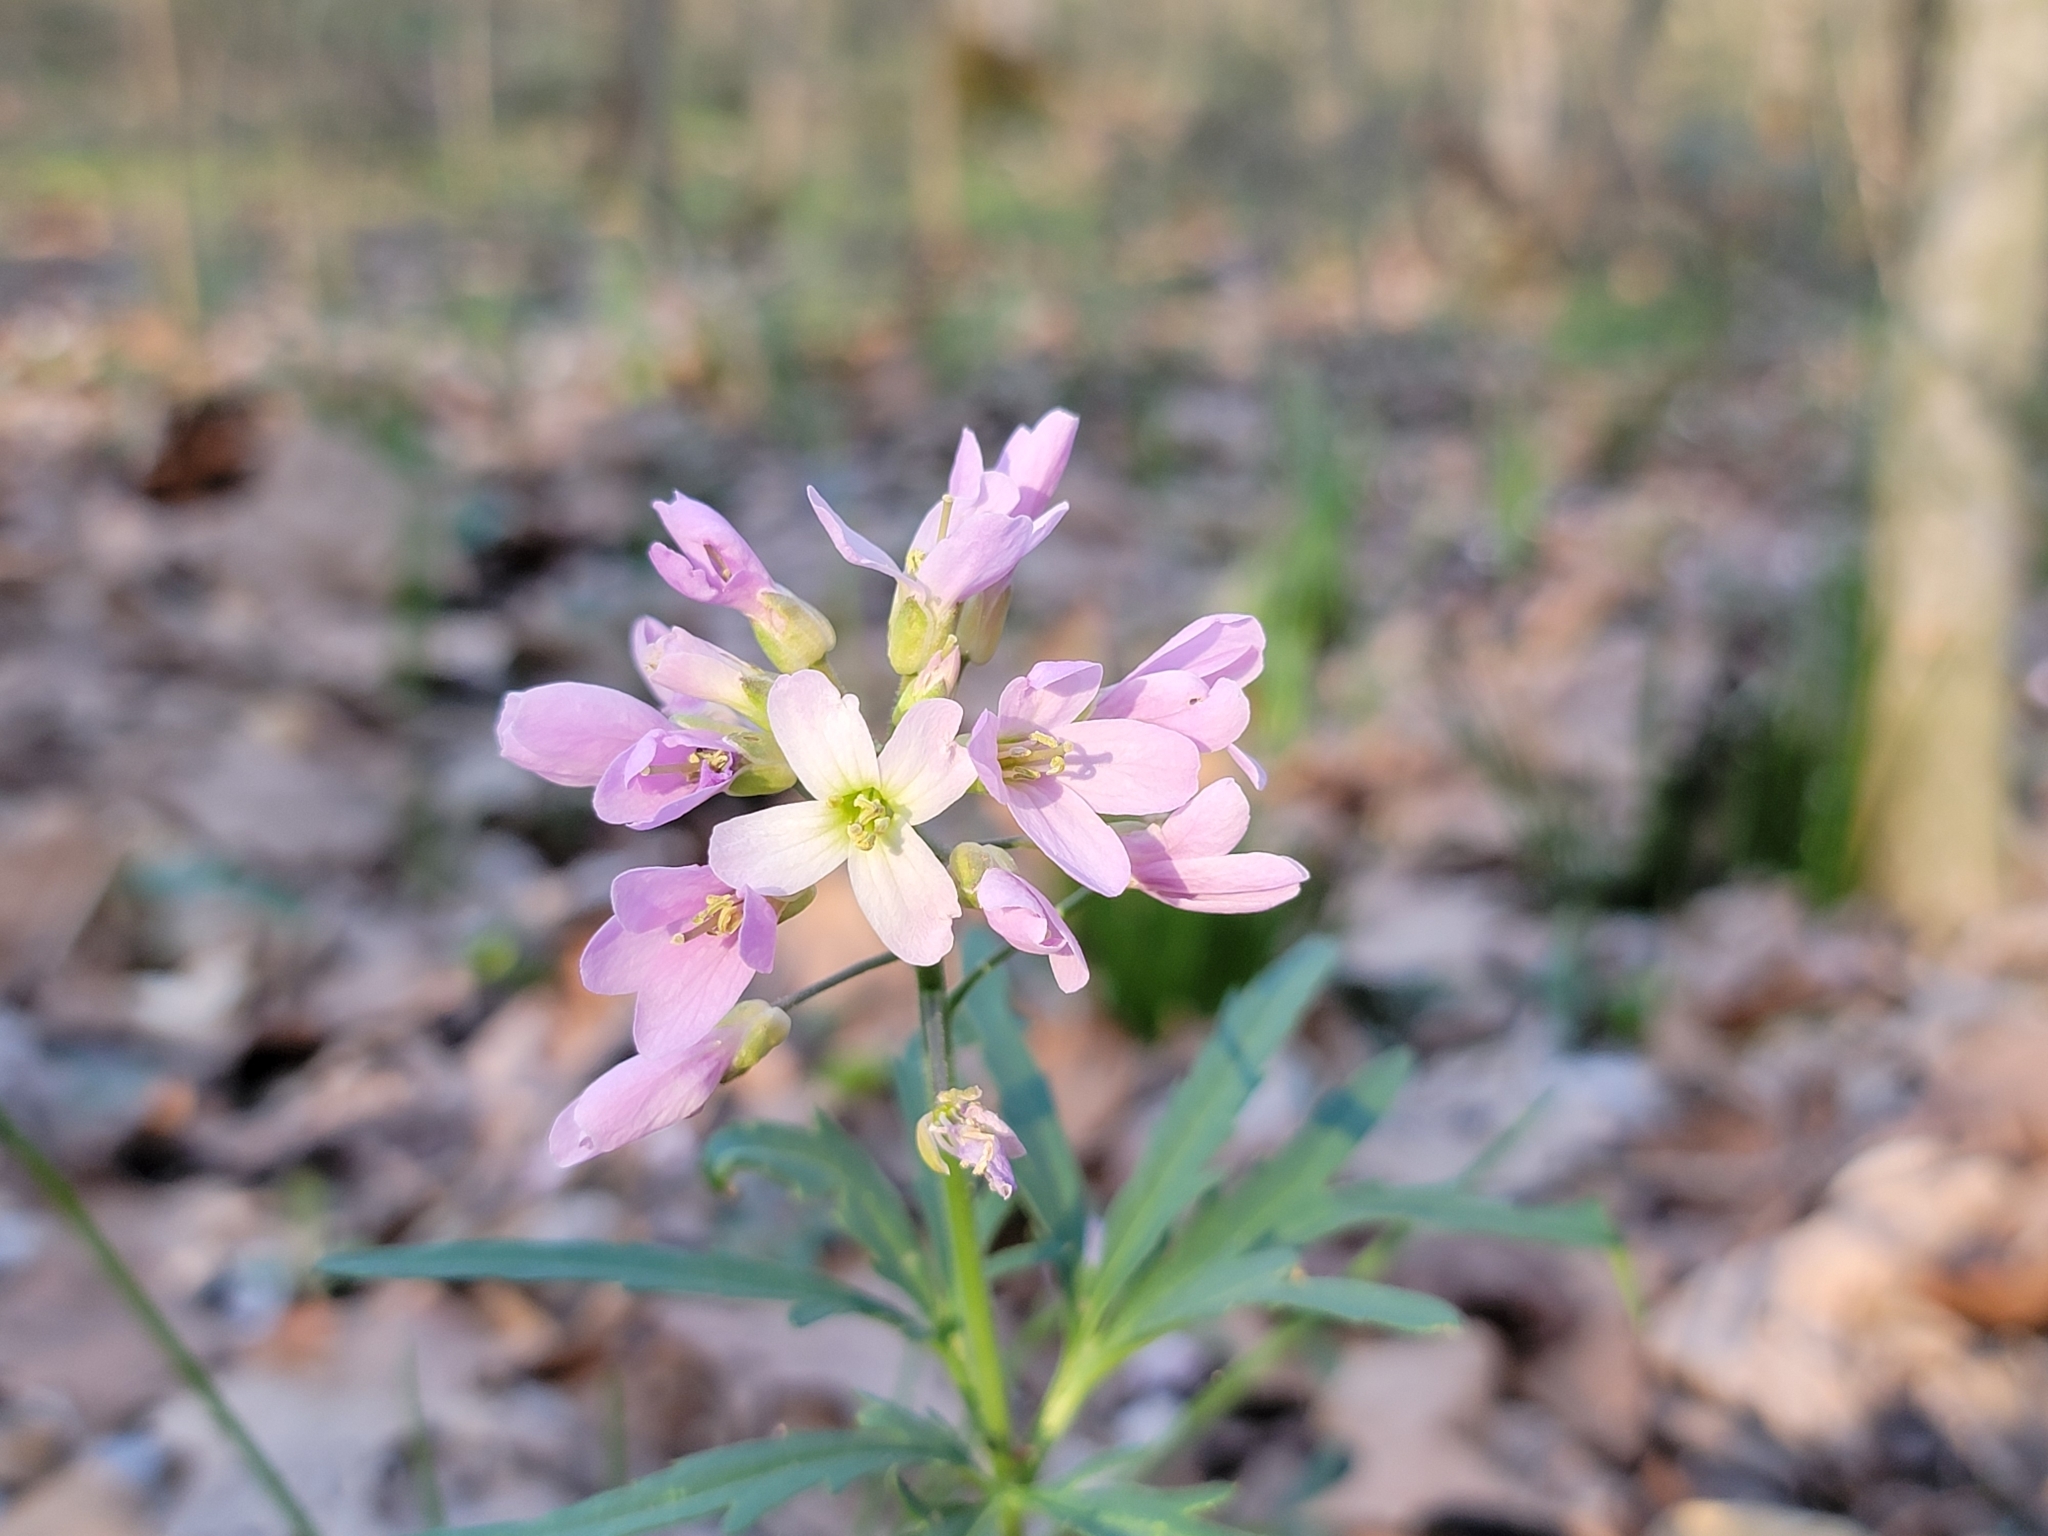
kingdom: Plantae
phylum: Tracheophyta
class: Magnoliopsida
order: Brassicales
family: Brassicaceae
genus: Cardamine
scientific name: Cardamine concatenata
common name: Cut-leaf toothcup
